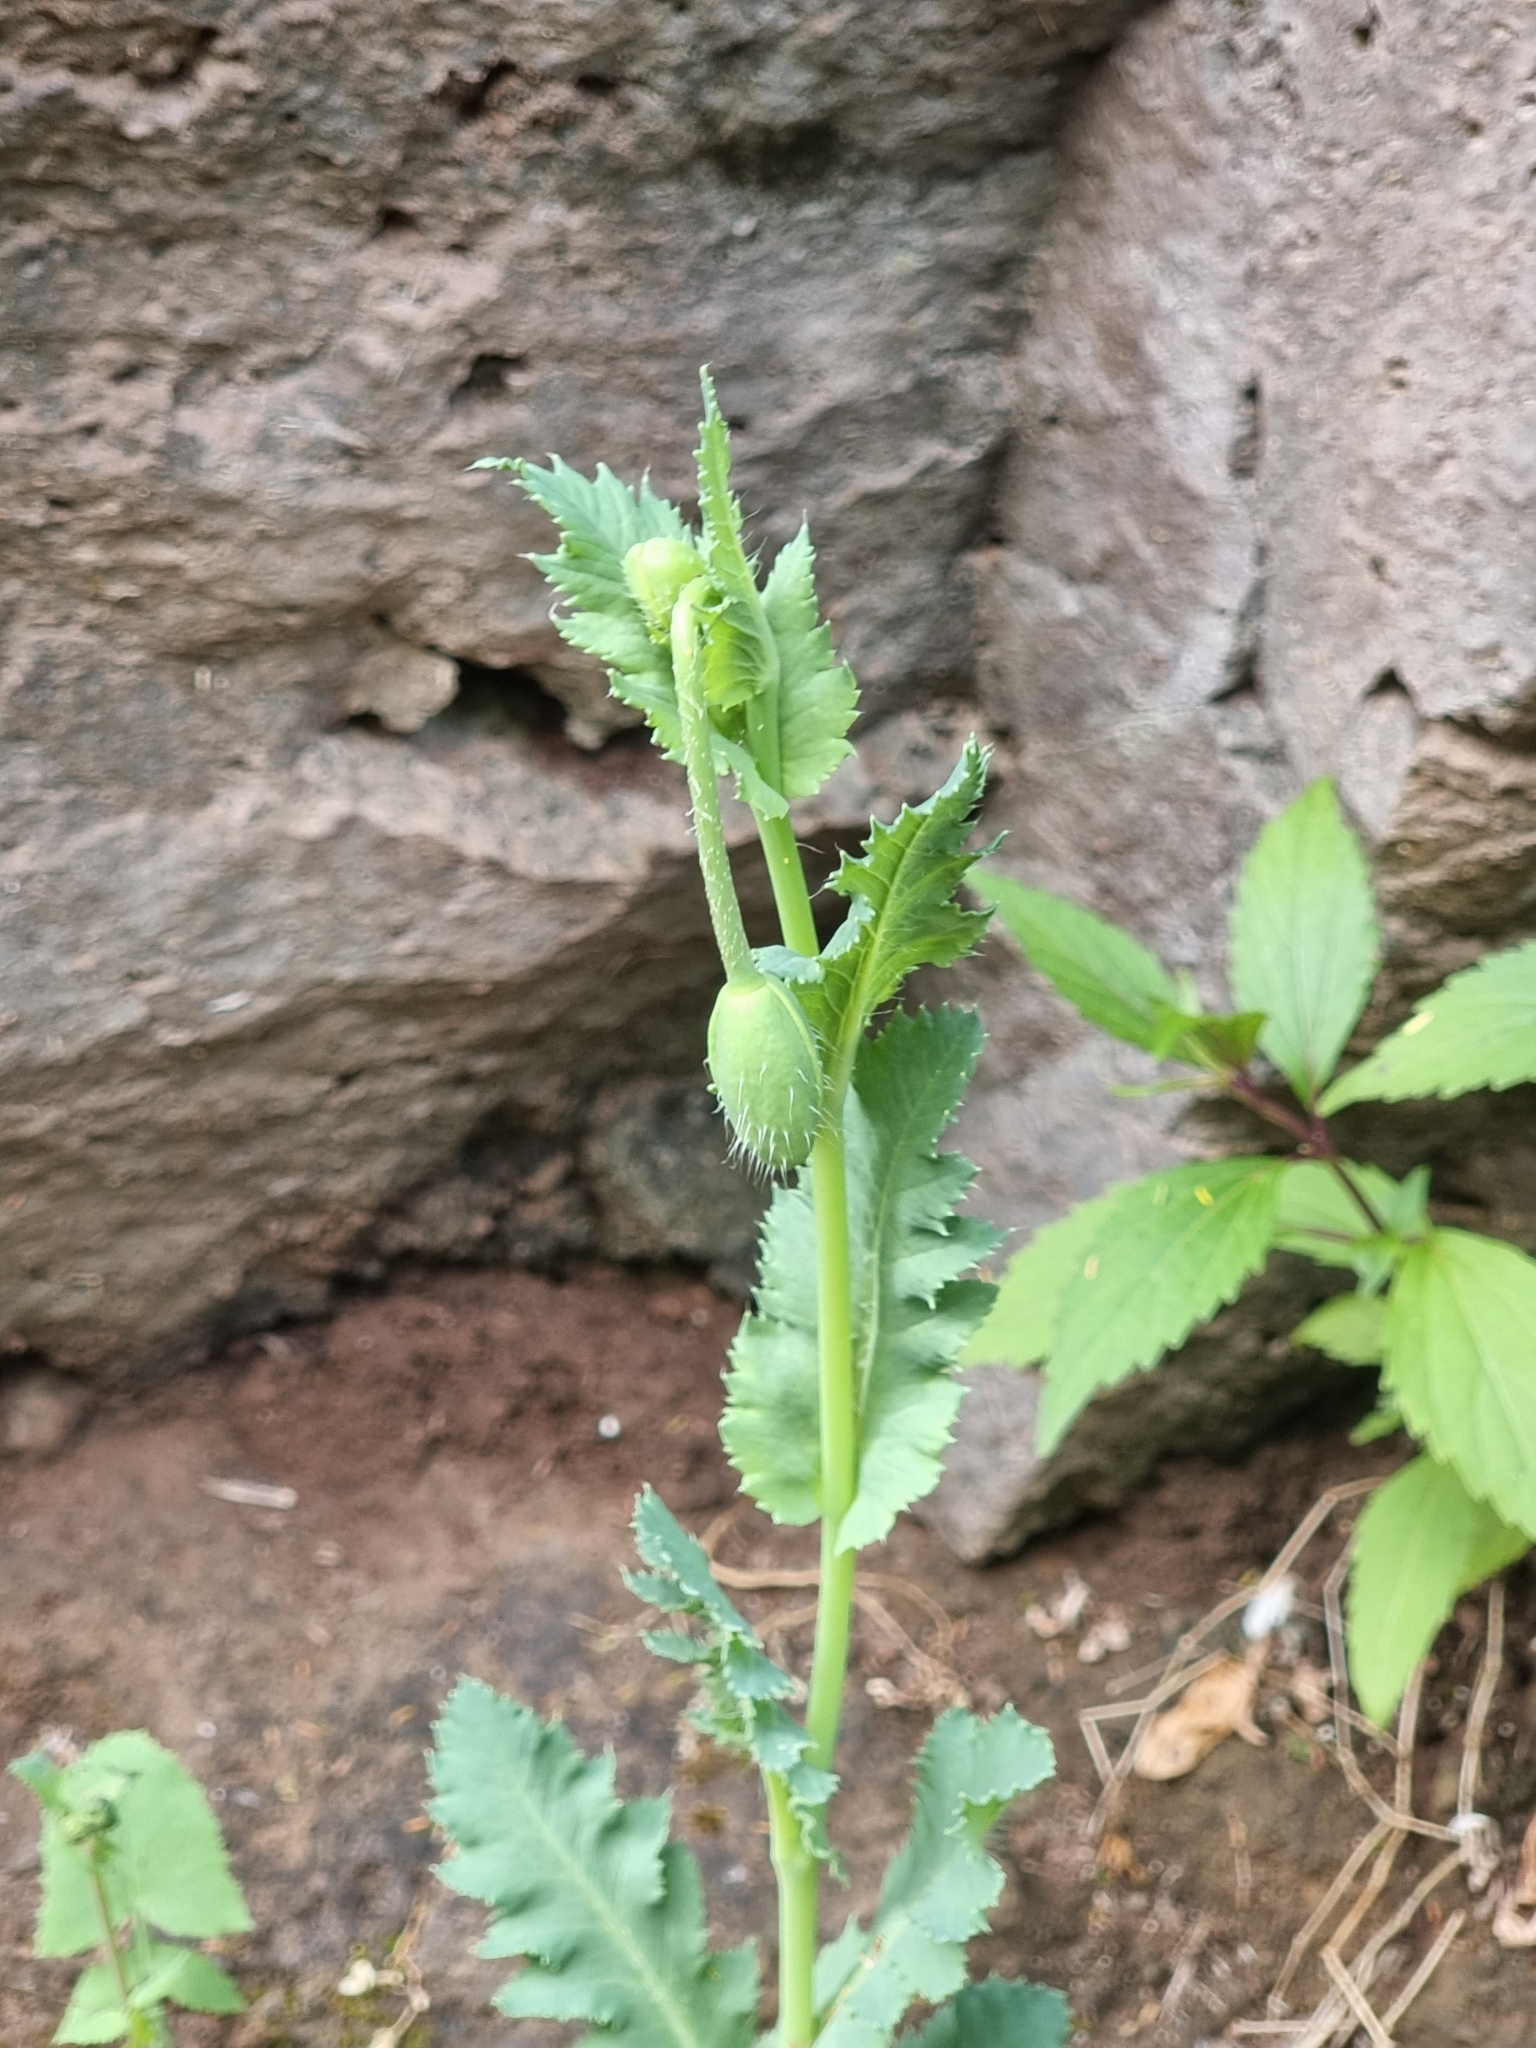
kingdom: Plantae
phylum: Tracheophyta
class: Magnoliopsida
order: Ranunculales
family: Papaveraceae
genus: Papaver
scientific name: Papaver somniferum
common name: Opium poppy
